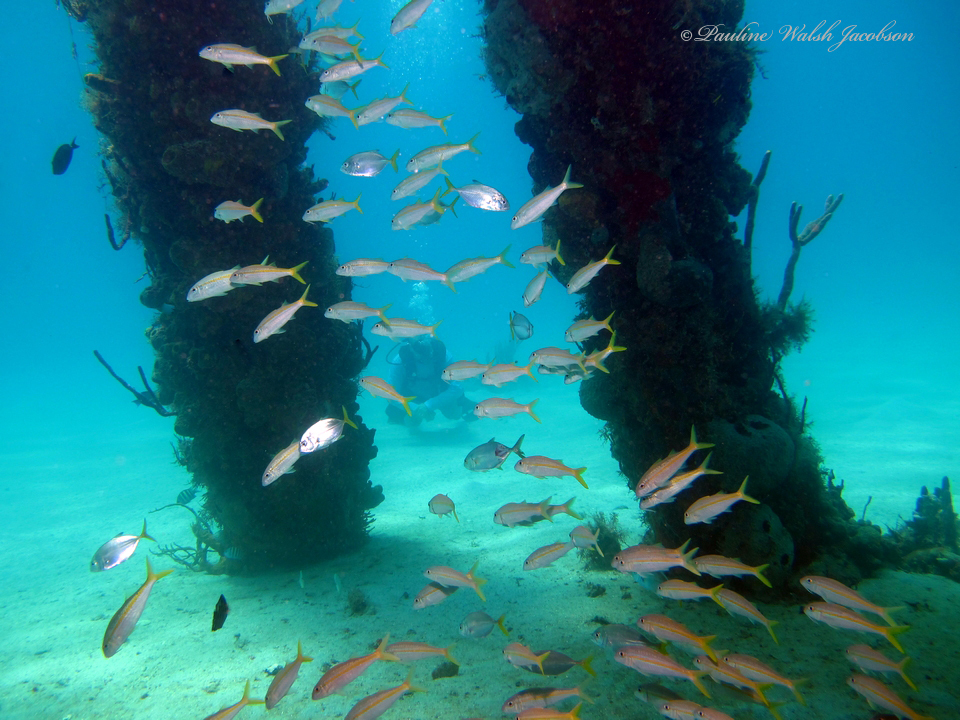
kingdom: Animalia
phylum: Chordata
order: Perciformes
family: Mullidae
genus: Mulloidichthys
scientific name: Mulloidichthys martinicus
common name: Yellow goatfish
